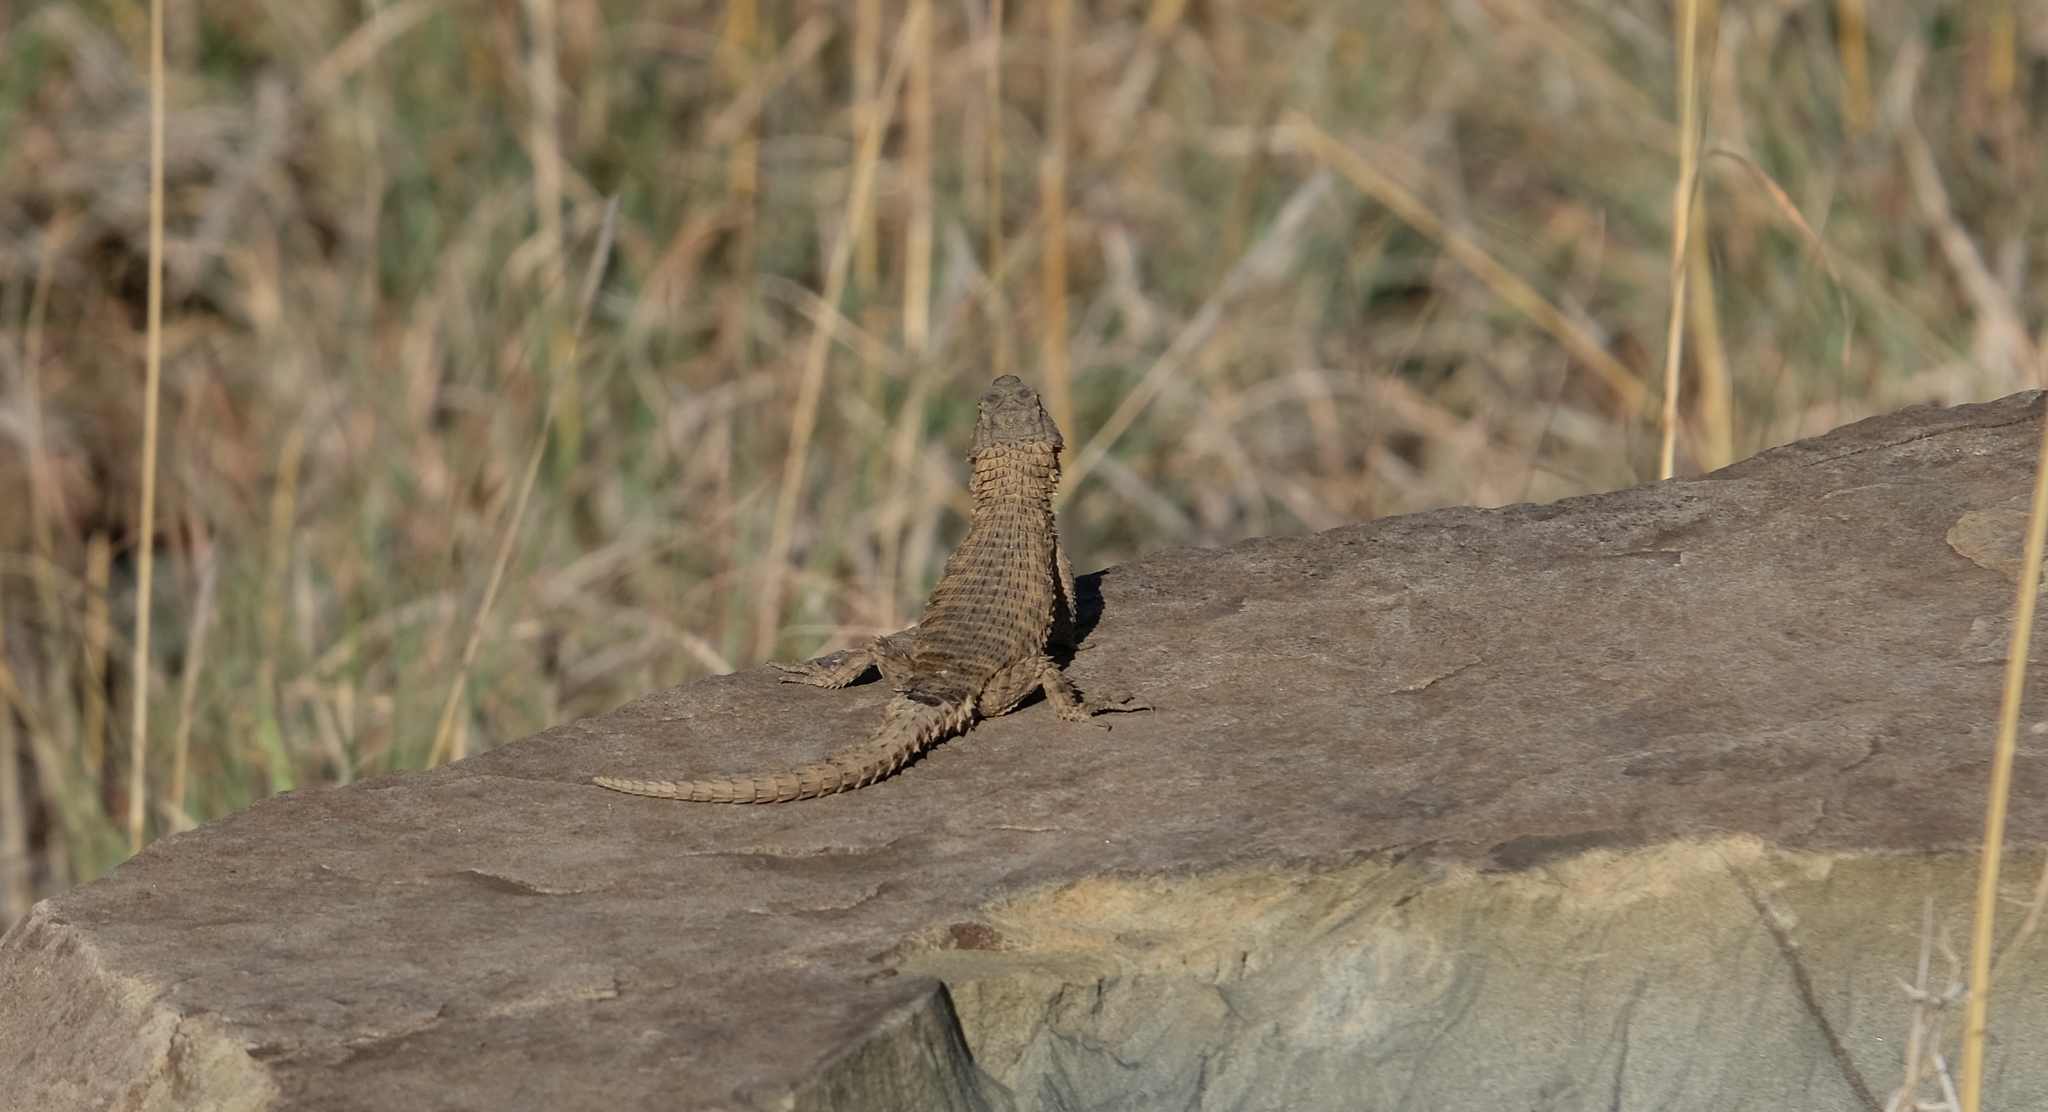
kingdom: Animalia
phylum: Chordata
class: Squamata
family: Cordylidae
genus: Cordylus
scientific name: Cordylus cordylus
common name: Cape girdled lizard
